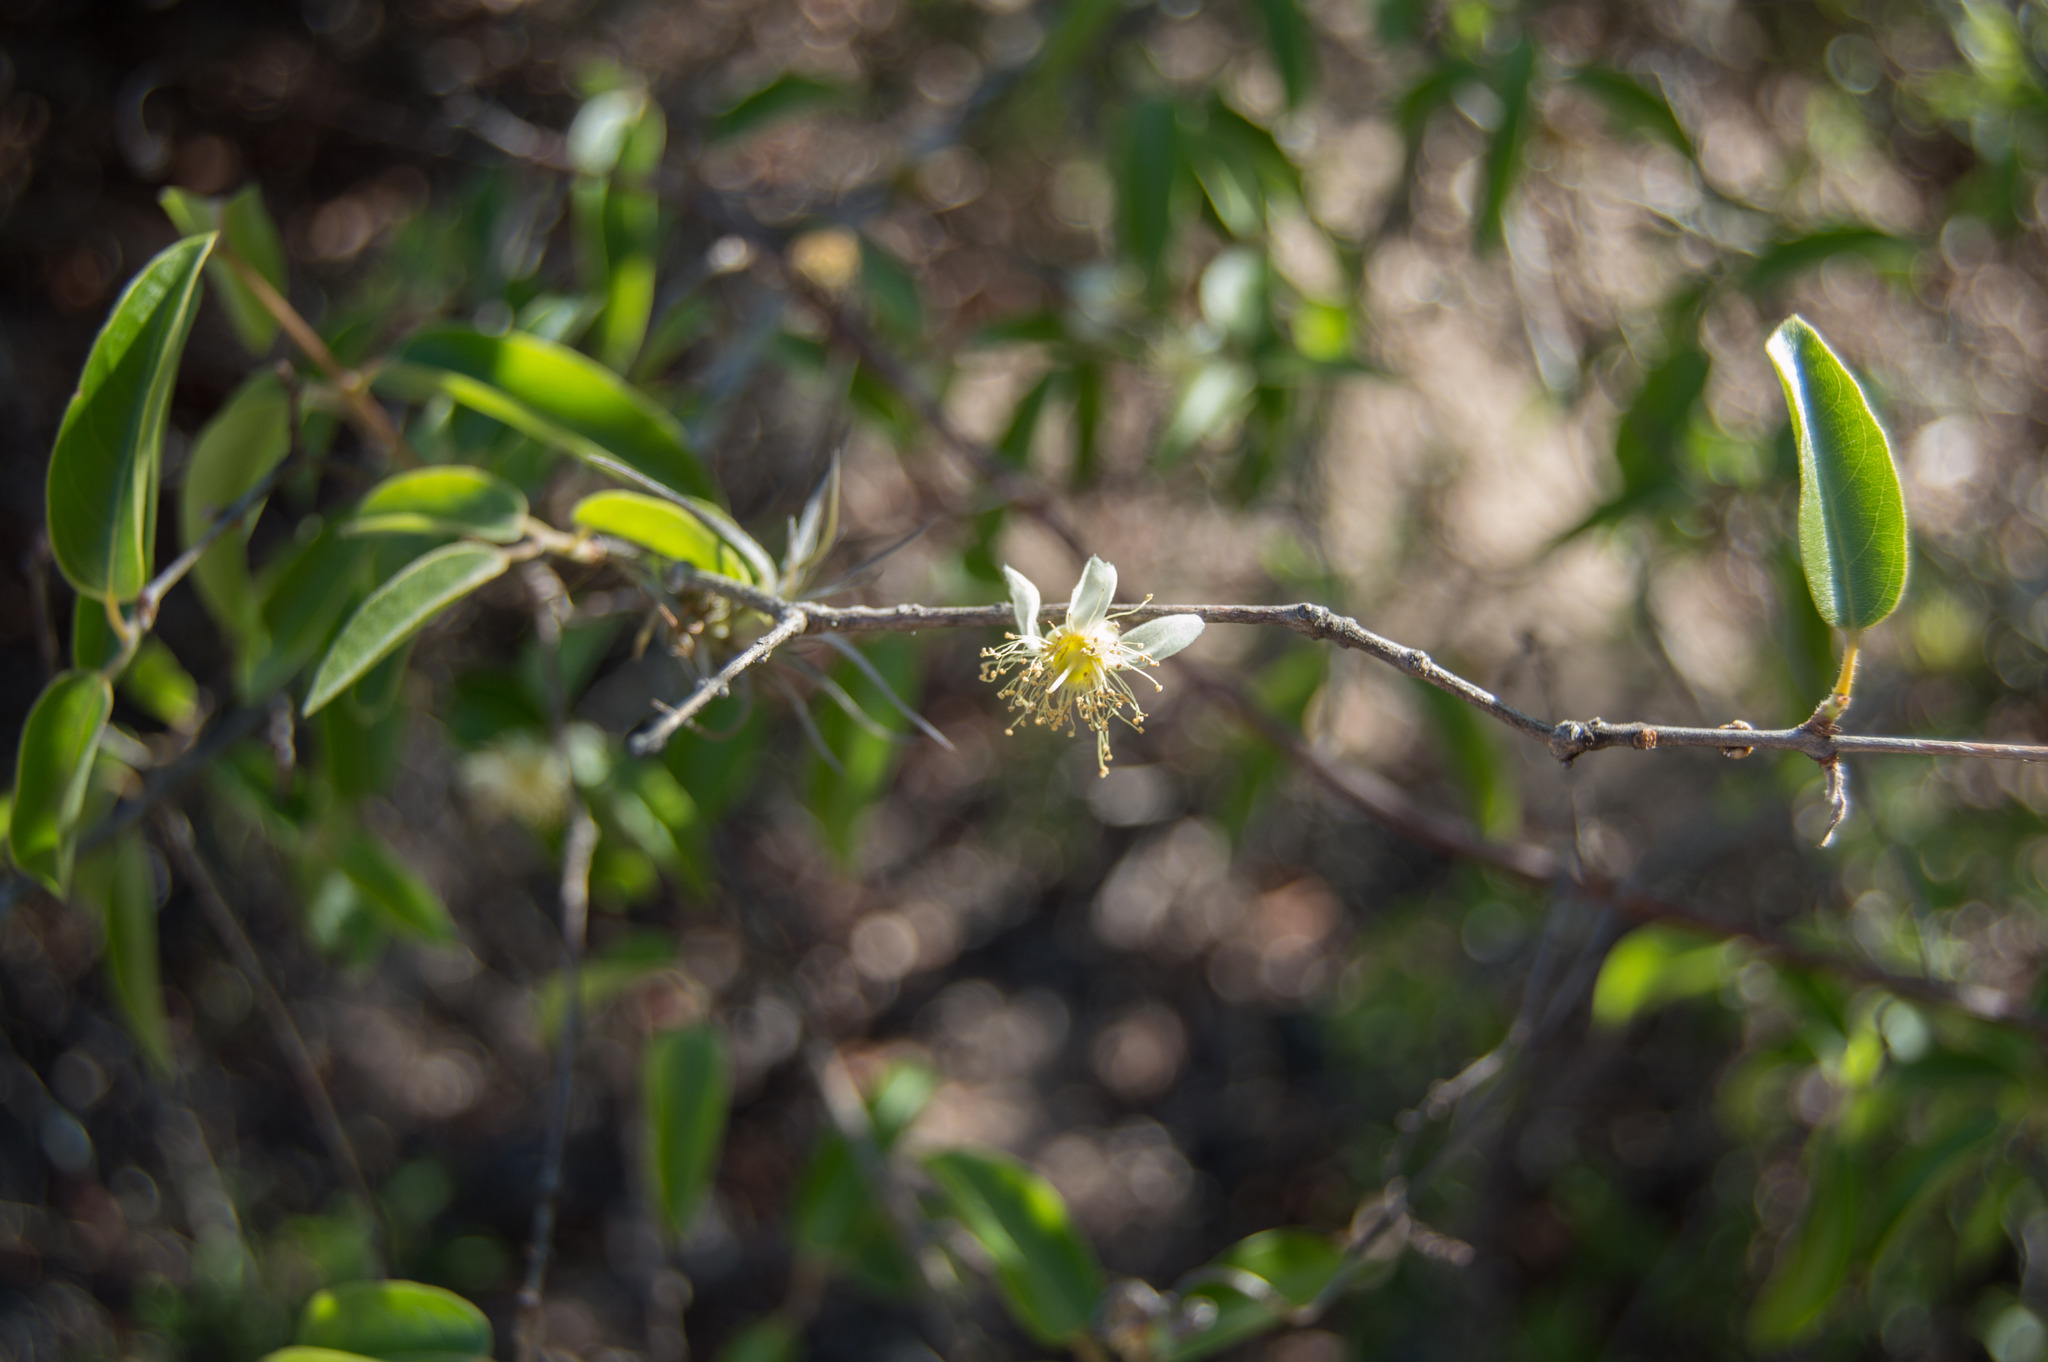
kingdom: Plantae
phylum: Tracheophyta
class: Magnoliopsida
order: Myrtales
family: Myrtaceae
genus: Eugenia
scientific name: Eugenia myrcianthes
